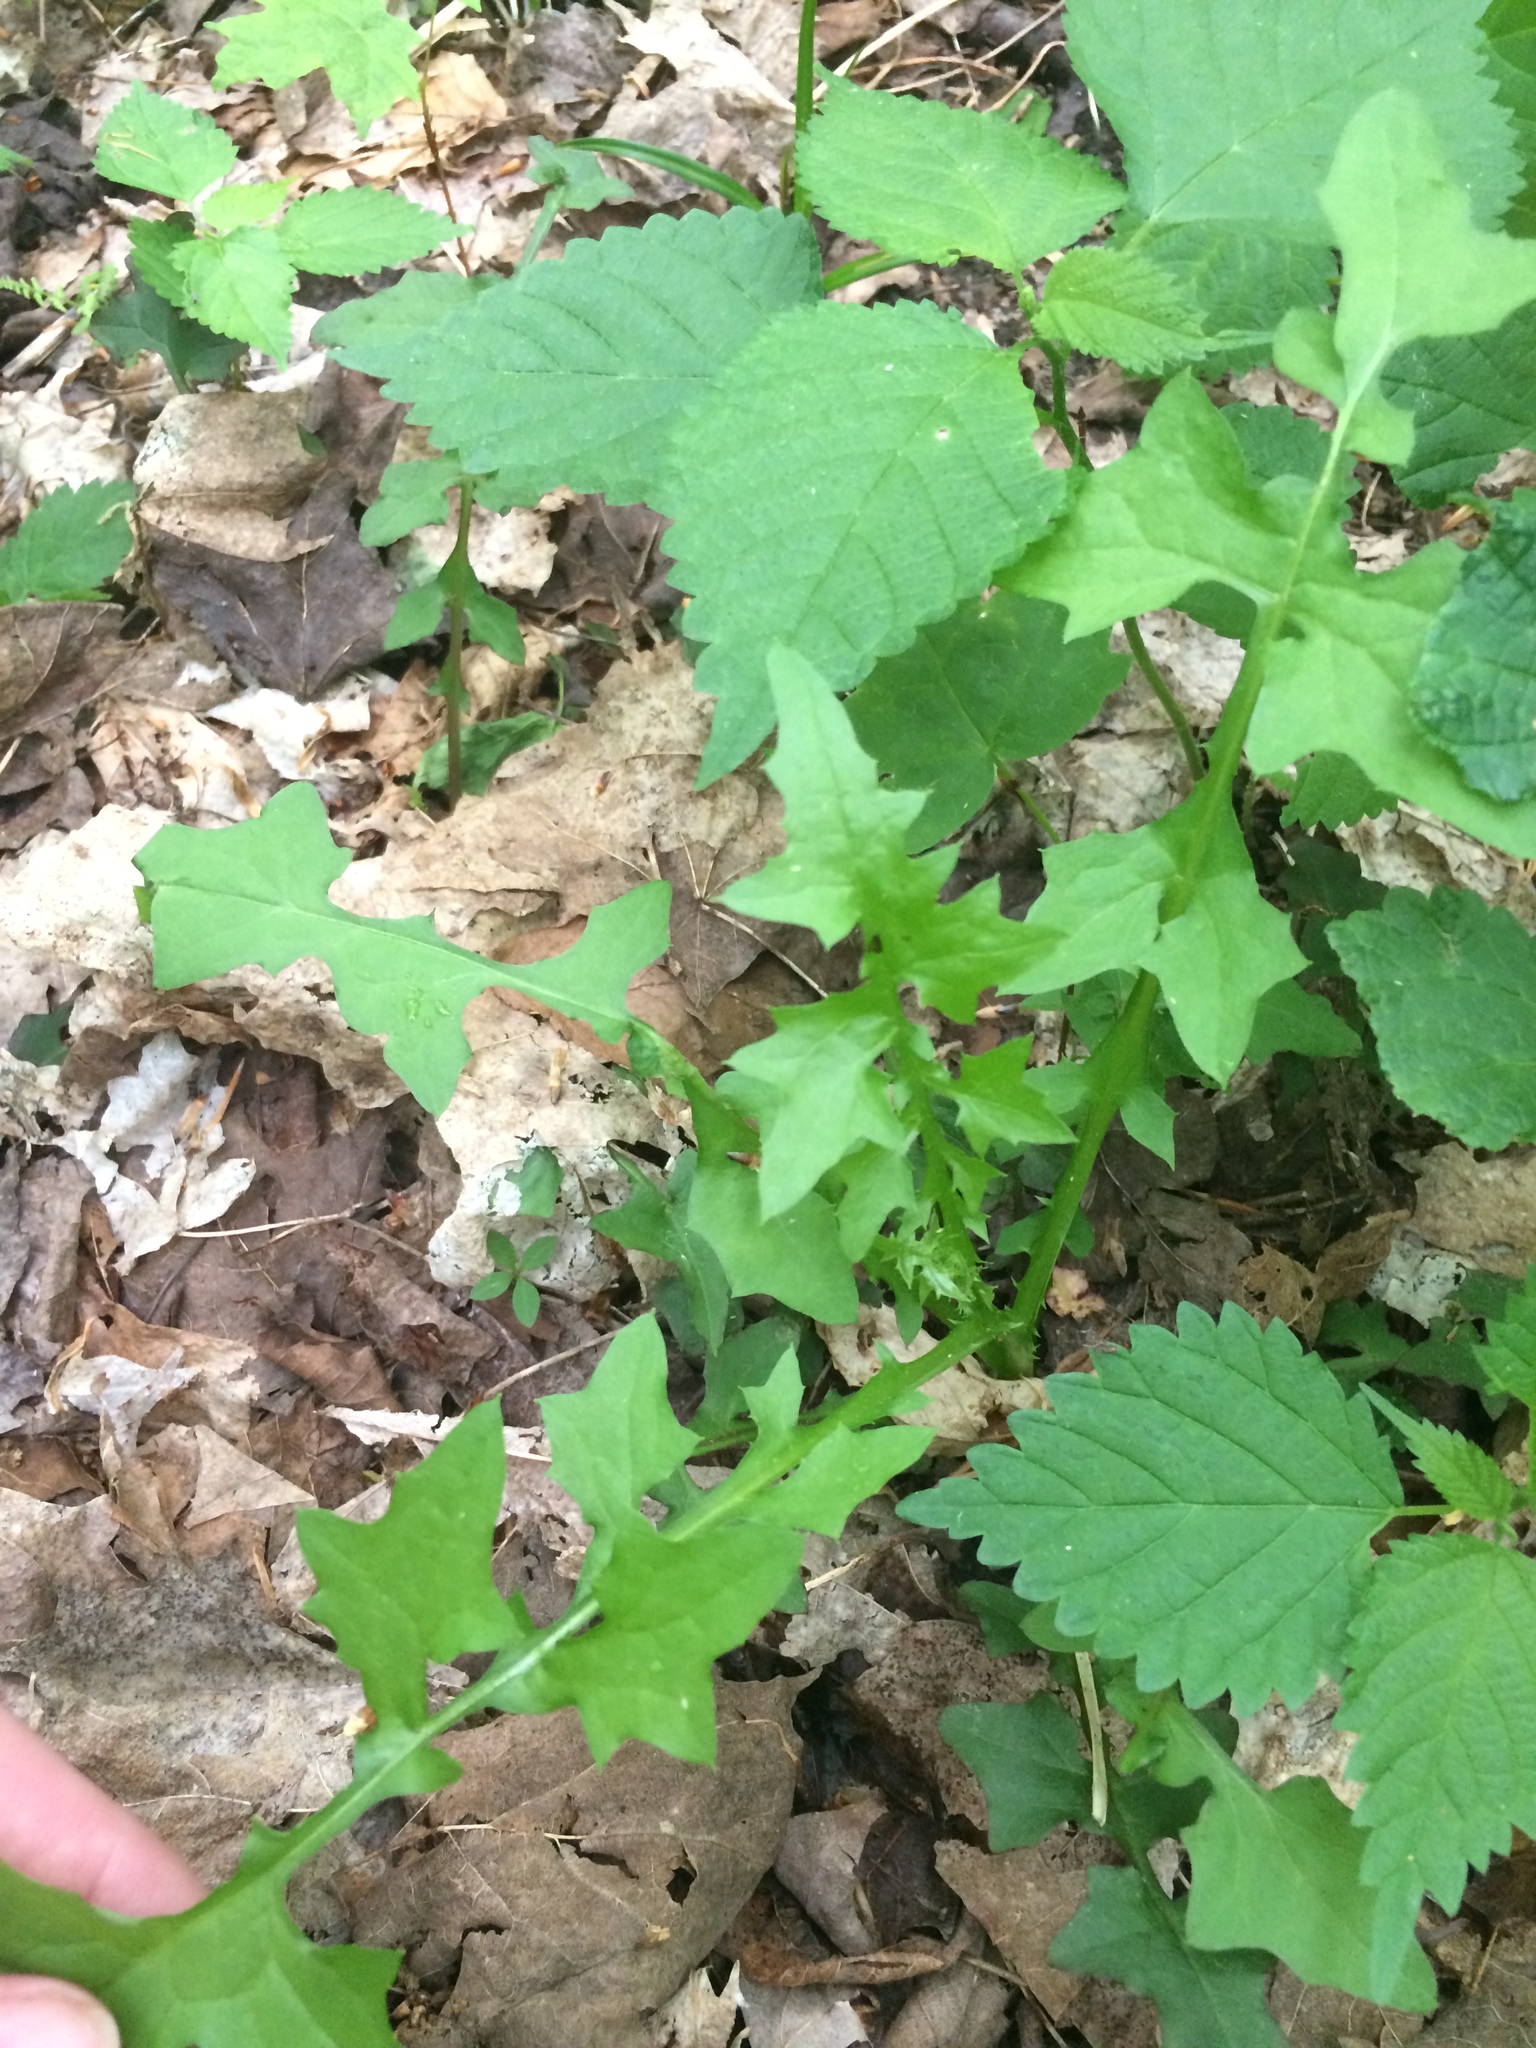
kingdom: Plantae
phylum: Tracheophyta
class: Magnoliopsida
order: Asterales
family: Asteraceae
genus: Mycelis
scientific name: Mycelis muralis
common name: Wall lettuce
